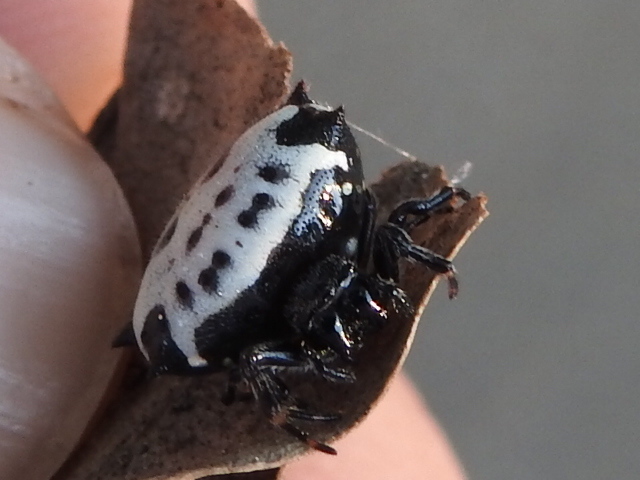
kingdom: Animalia
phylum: Arthropoda
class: Arachnida
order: Araneae
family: Araneidae
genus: Gasteracantha
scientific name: Gasteracantha cancriformis
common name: Orb weavers
